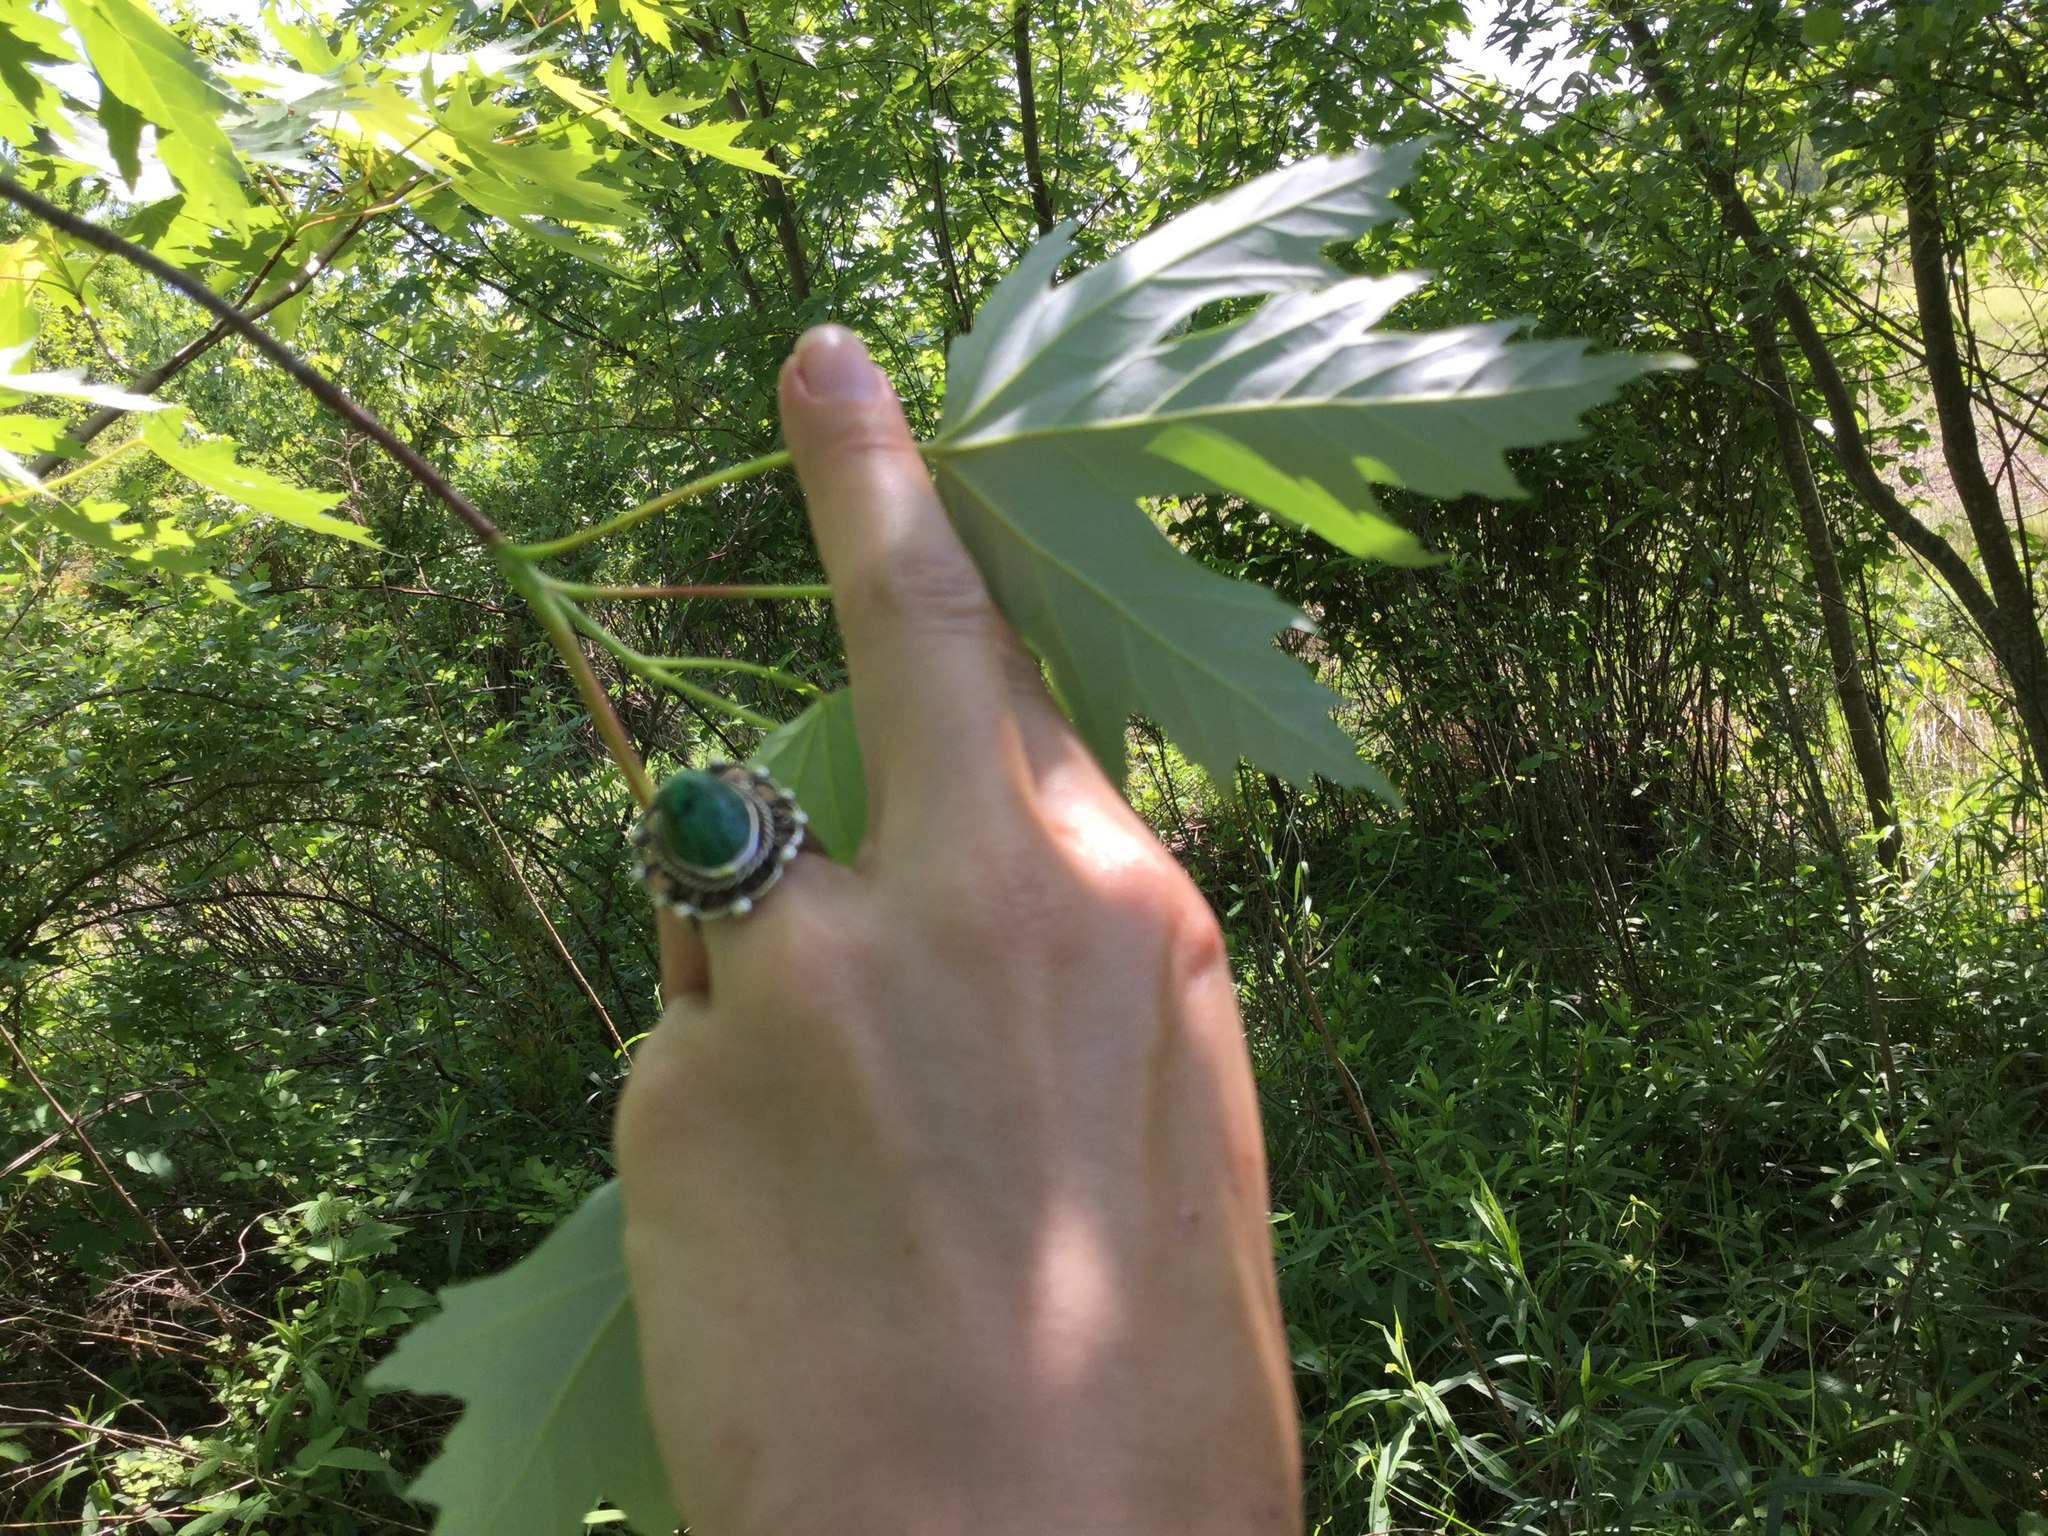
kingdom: Plantae
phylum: Tracheophyta
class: Magnoliopsida
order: Sapindales
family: Sapindaceae
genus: Acer
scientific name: Acer saccharinum
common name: Silver maple
